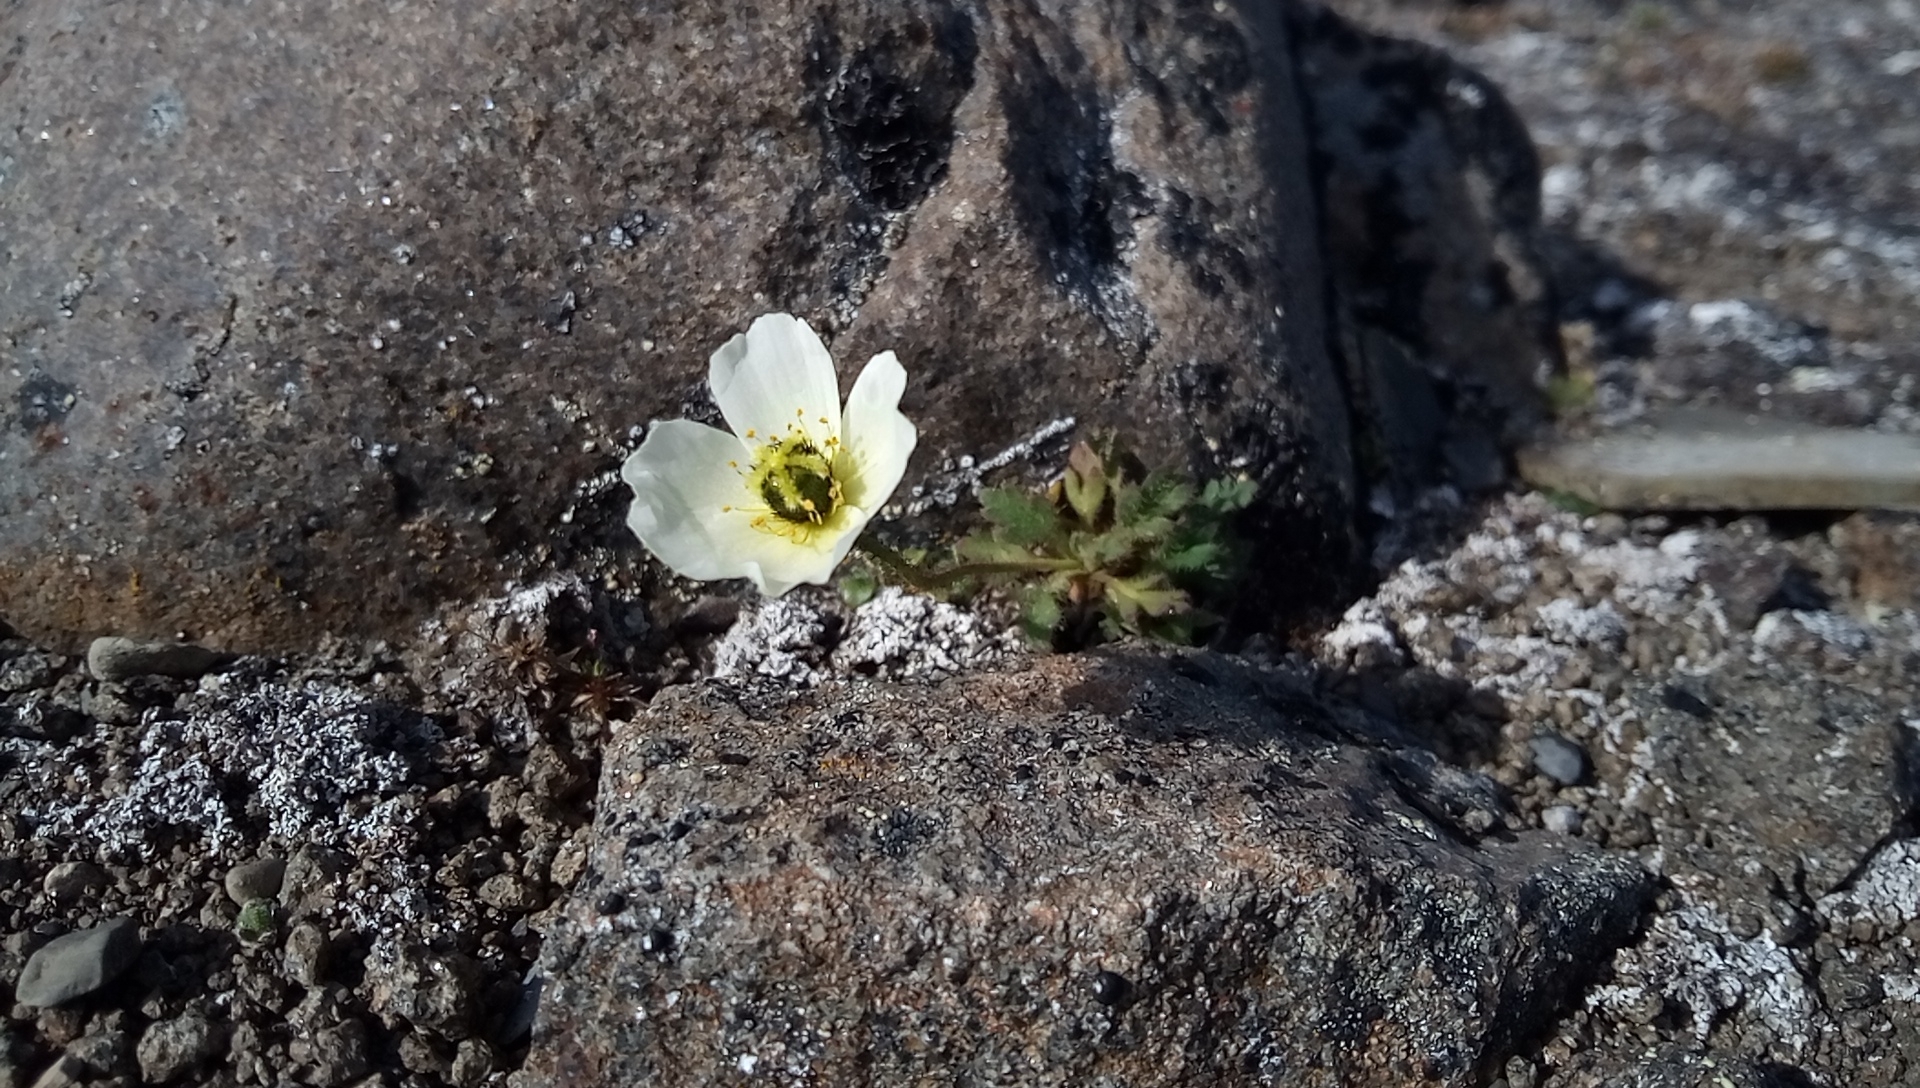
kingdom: Plantae
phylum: Tracheophyta
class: Magnoliopsida
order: Ranunculales
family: Papaveraceae
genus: Papaver
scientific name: Papaver radicatum
